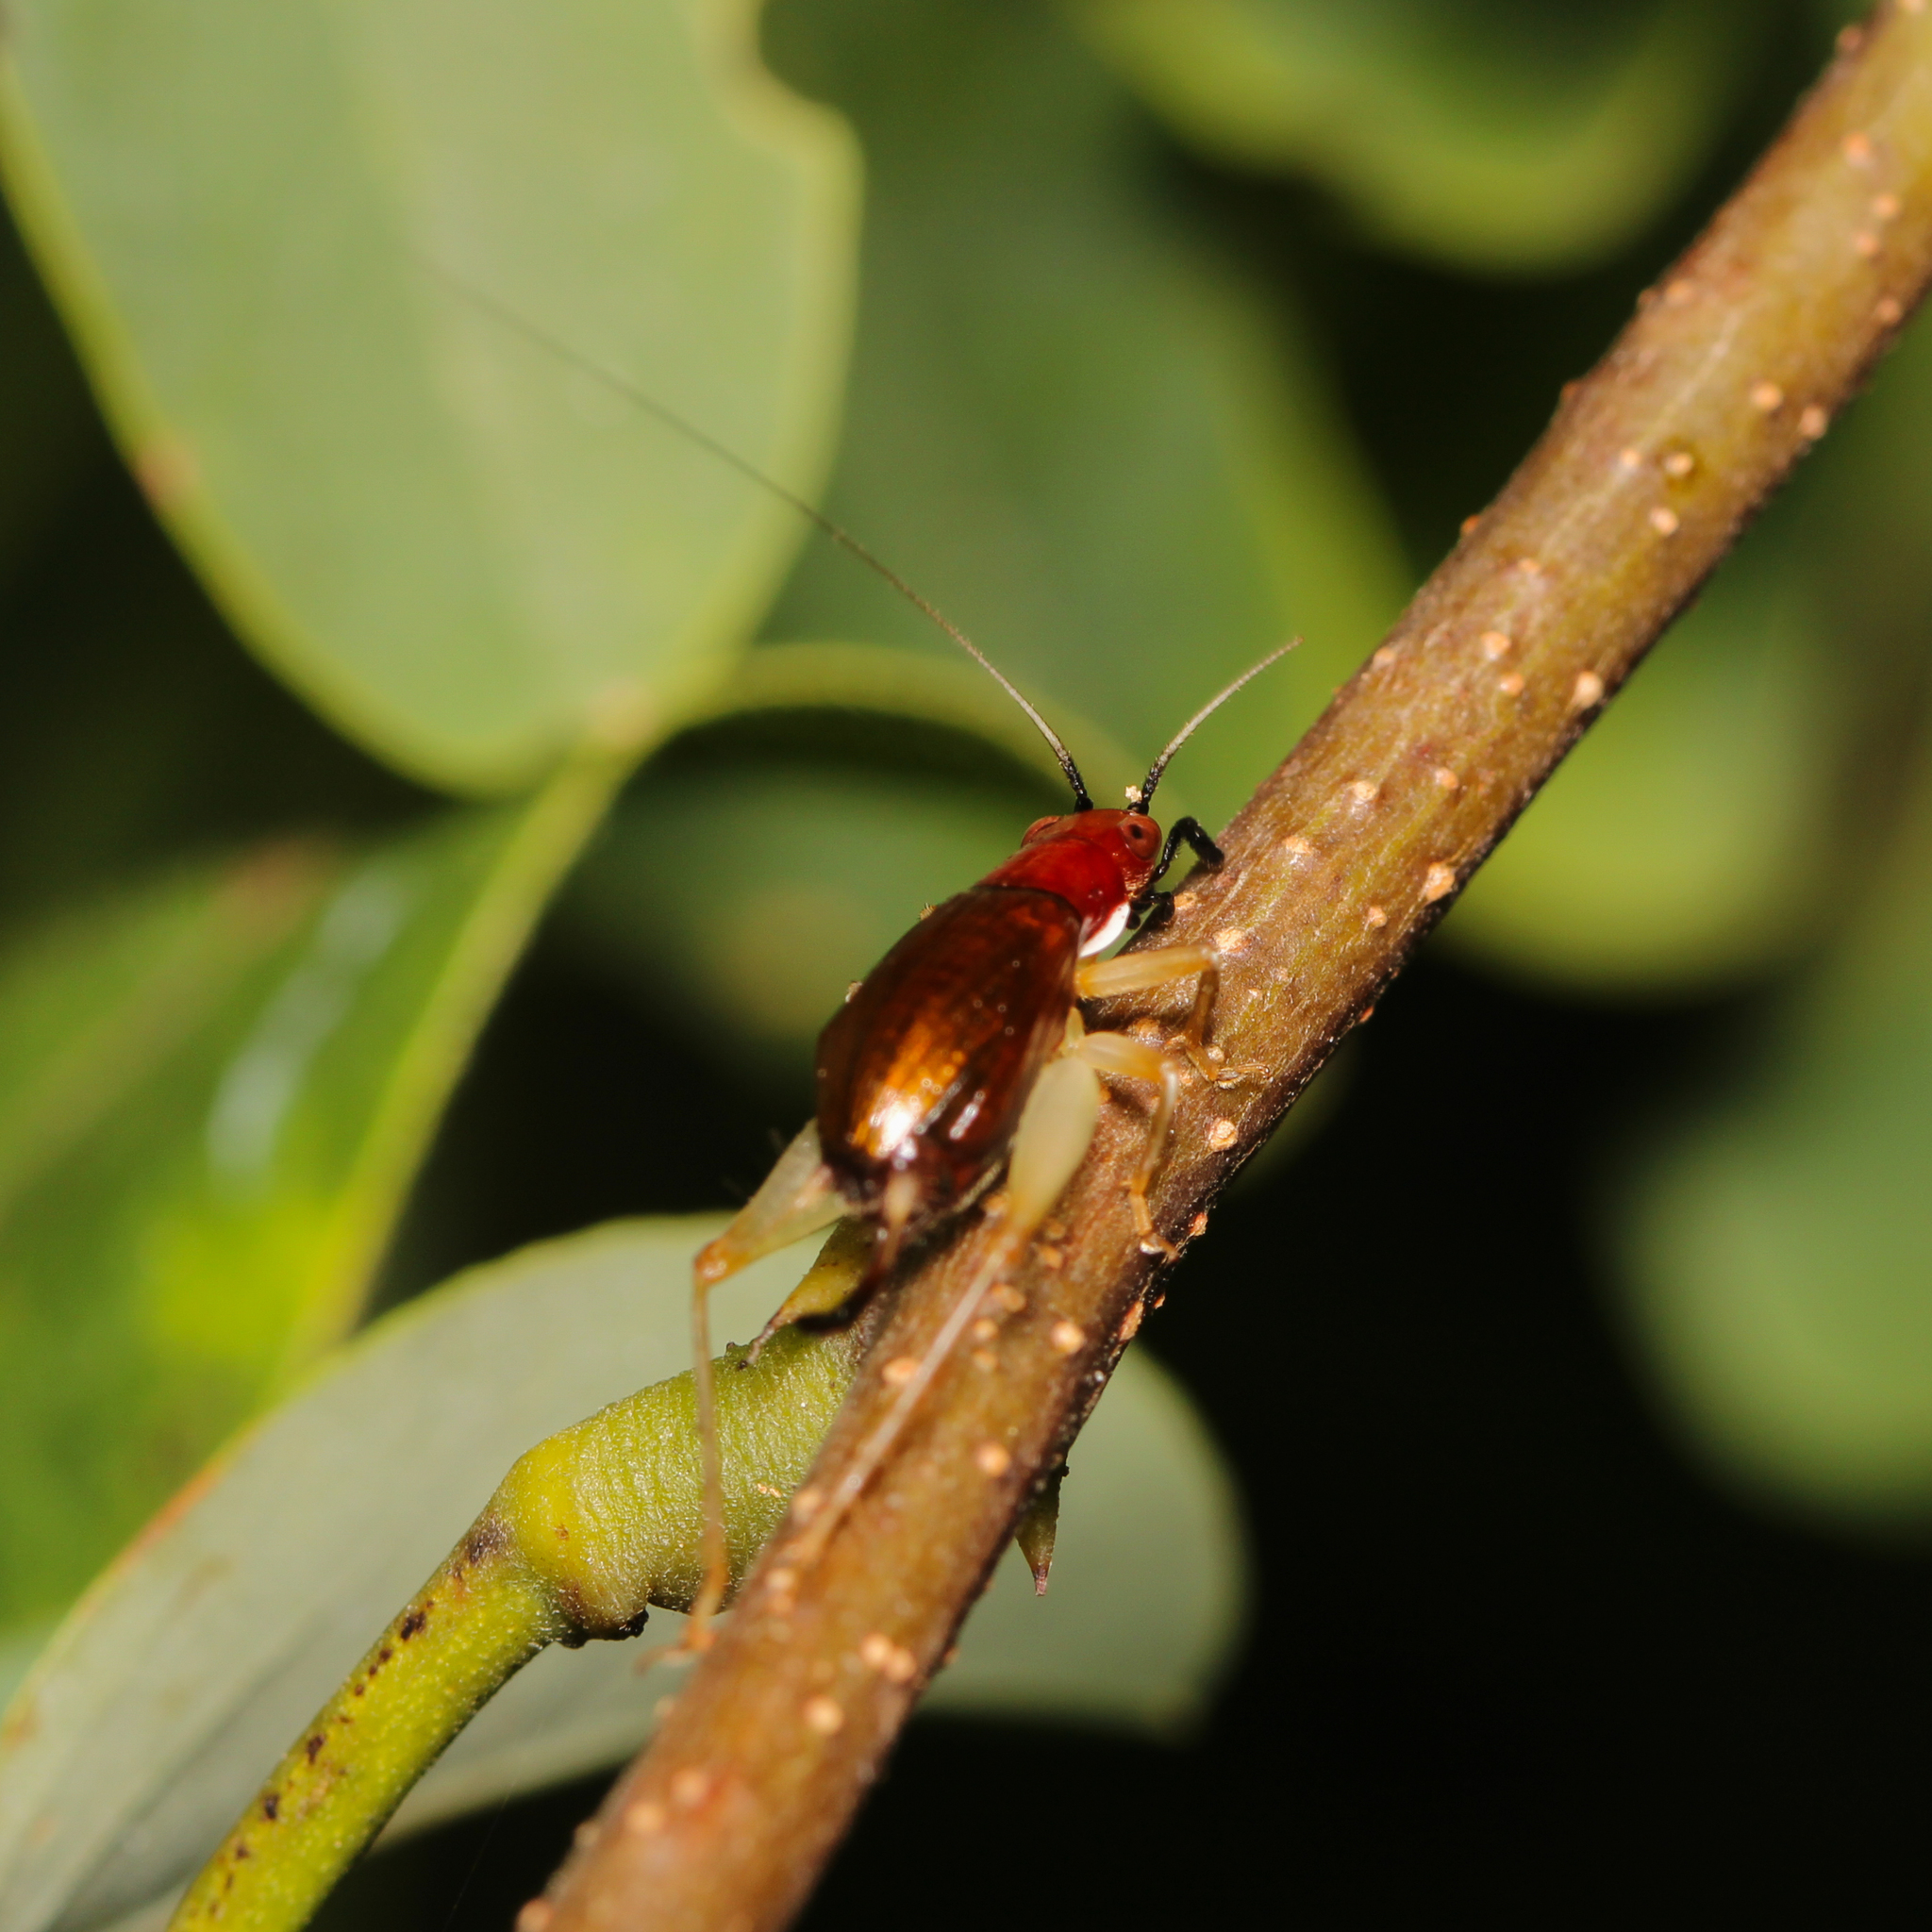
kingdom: Animalia
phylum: Arthropoda
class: Insecta
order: Orthoptera
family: Trigonidiidae
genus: Phyllopalpus
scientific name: Phyllopalpus pulchellus
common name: Handsome trig
